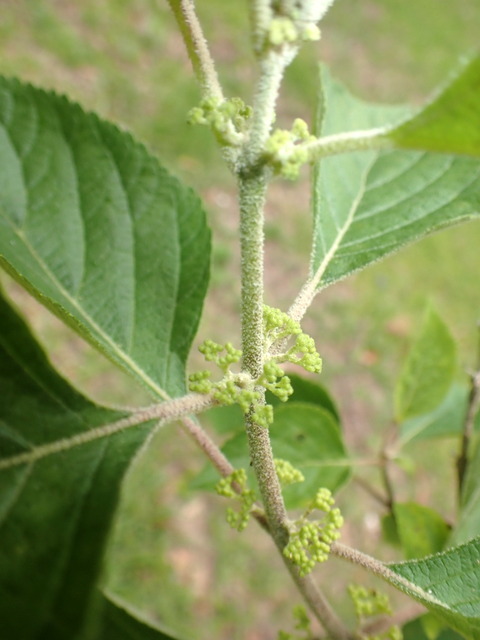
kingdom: Plantae
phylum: Tracheophyta
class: Magnoliopsida
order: Lamiales
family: Lamiaceae
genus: Callicarpa
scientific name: Callicarpa americana
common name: American beautyberry
